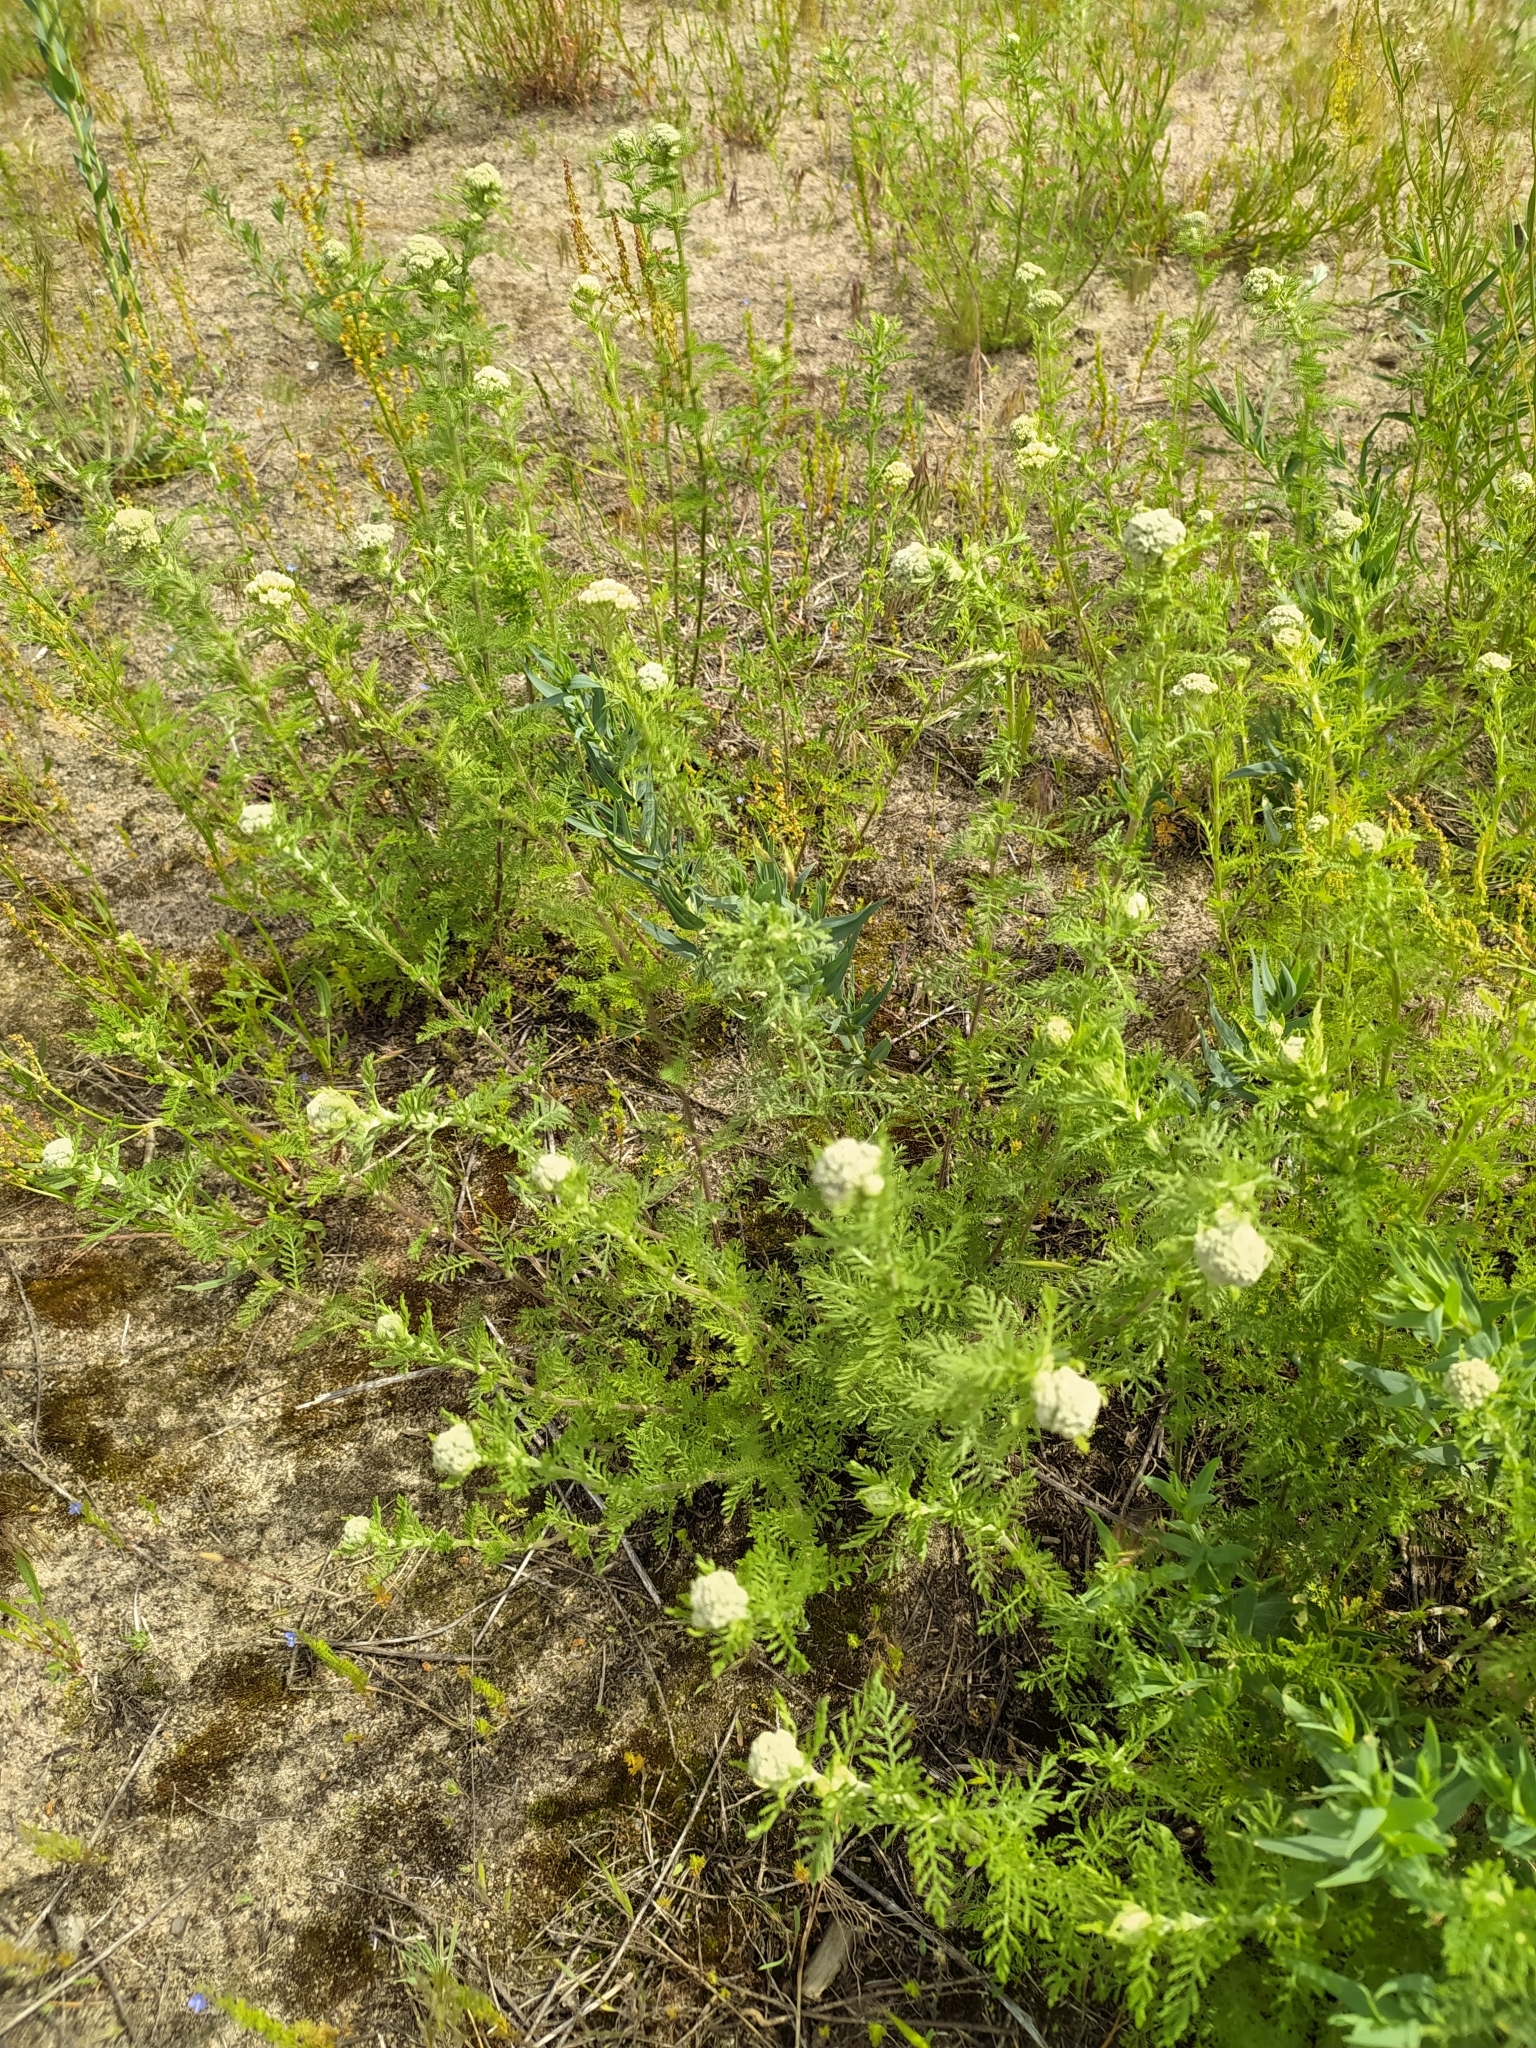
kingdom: Plantae
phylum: Tracheophyta
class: Magnoliopsida
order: Asterales
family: Asteraceae
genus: Achillea
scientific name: Achillea nobilis
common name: Noble yarrow
